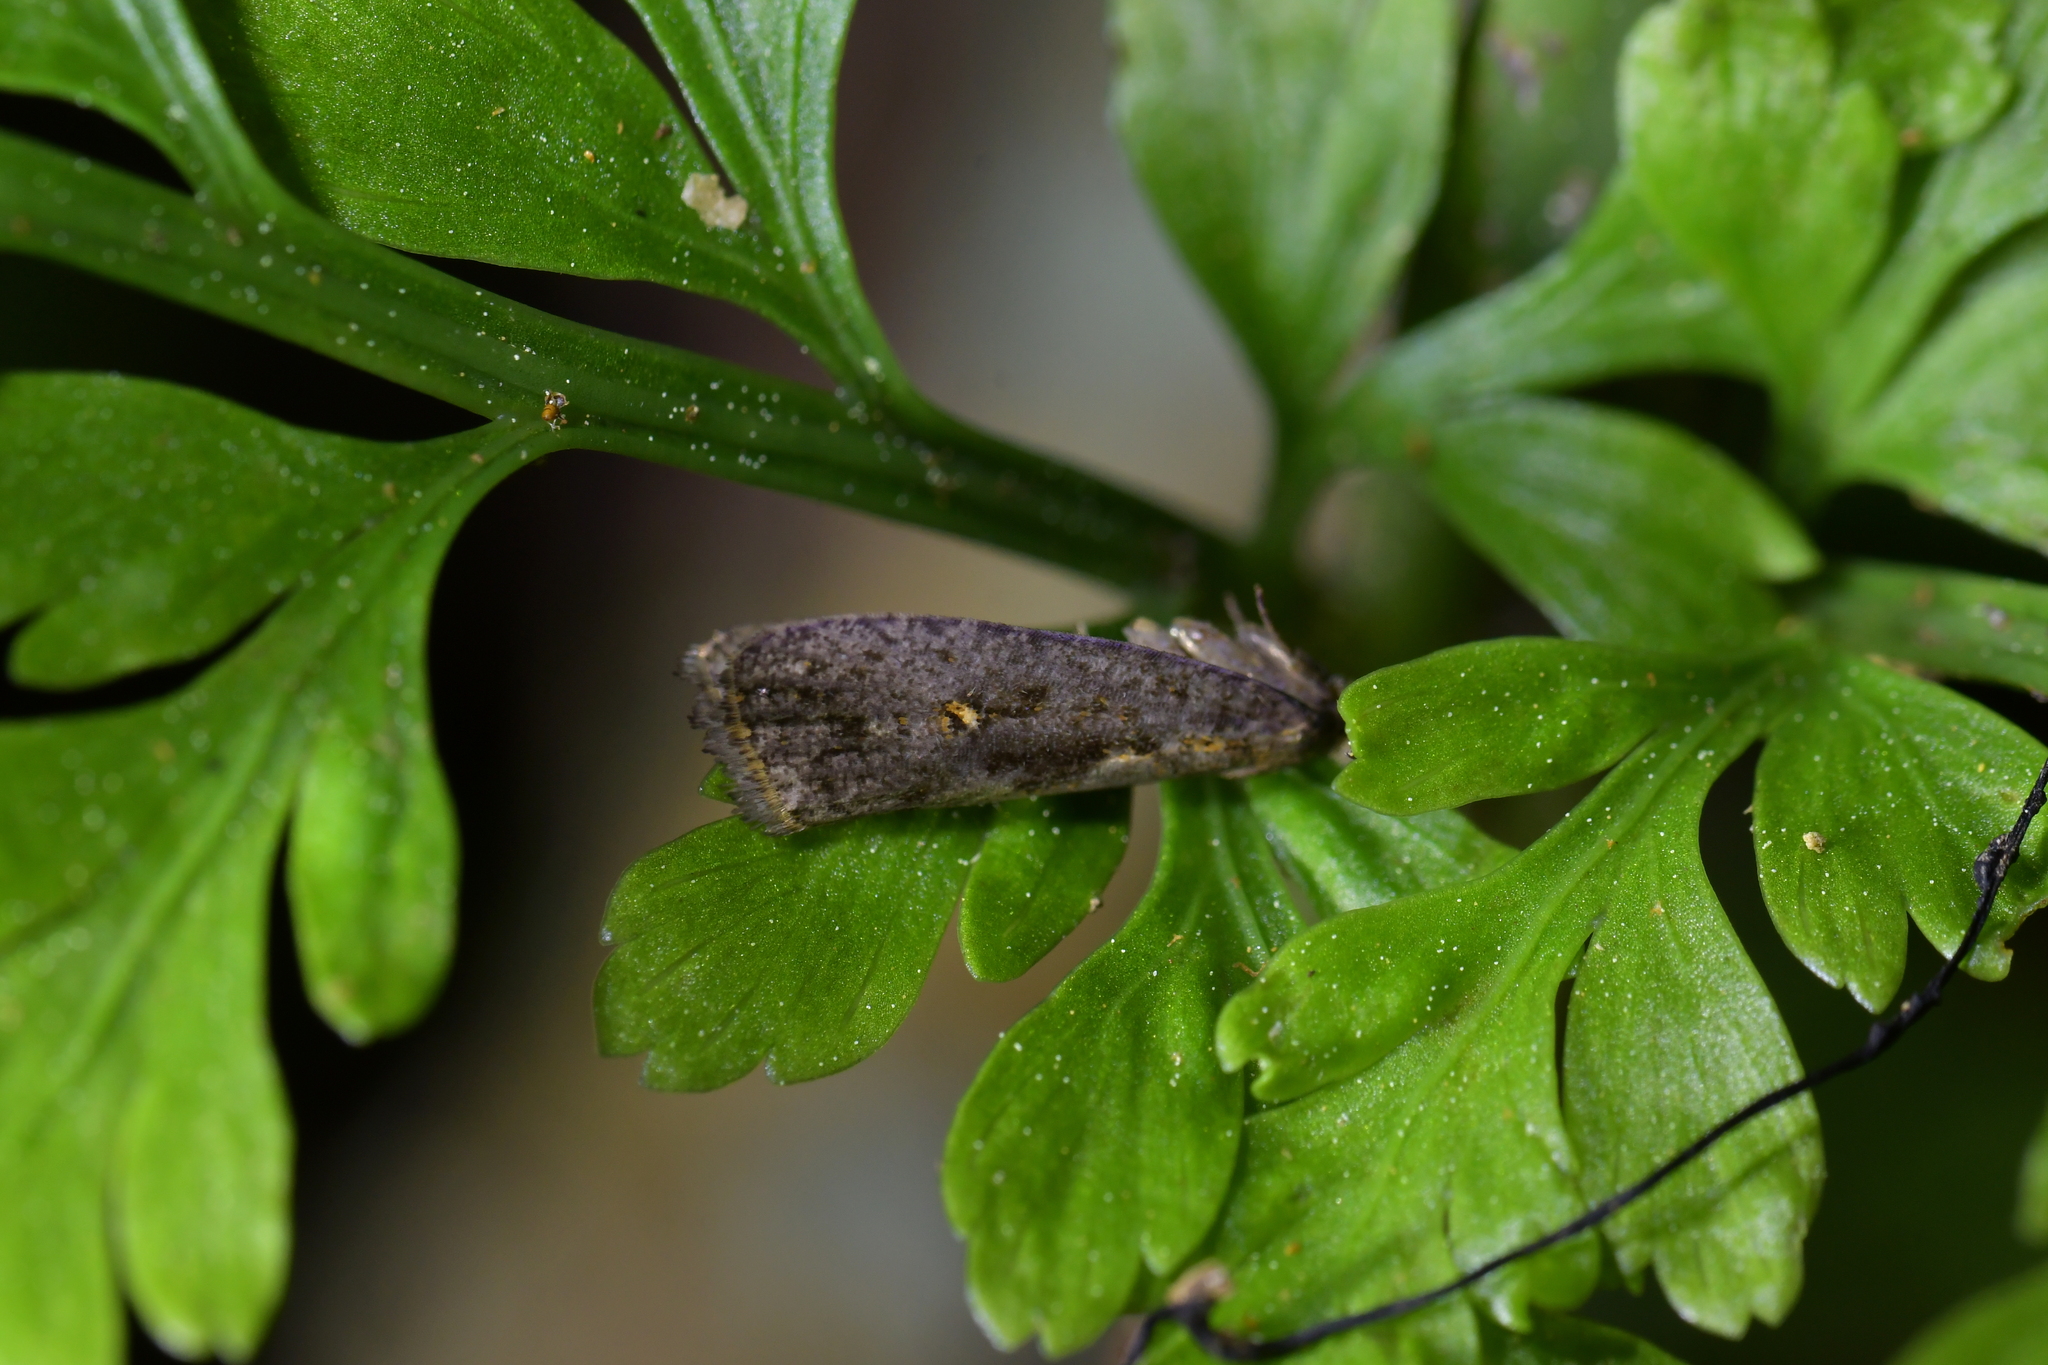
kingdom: Animalia
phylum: Arthropoda
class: Insecta
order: Lepidoptera
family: Tortricidae
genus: Cryptaspasma
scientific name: Cryptaspasma querula
